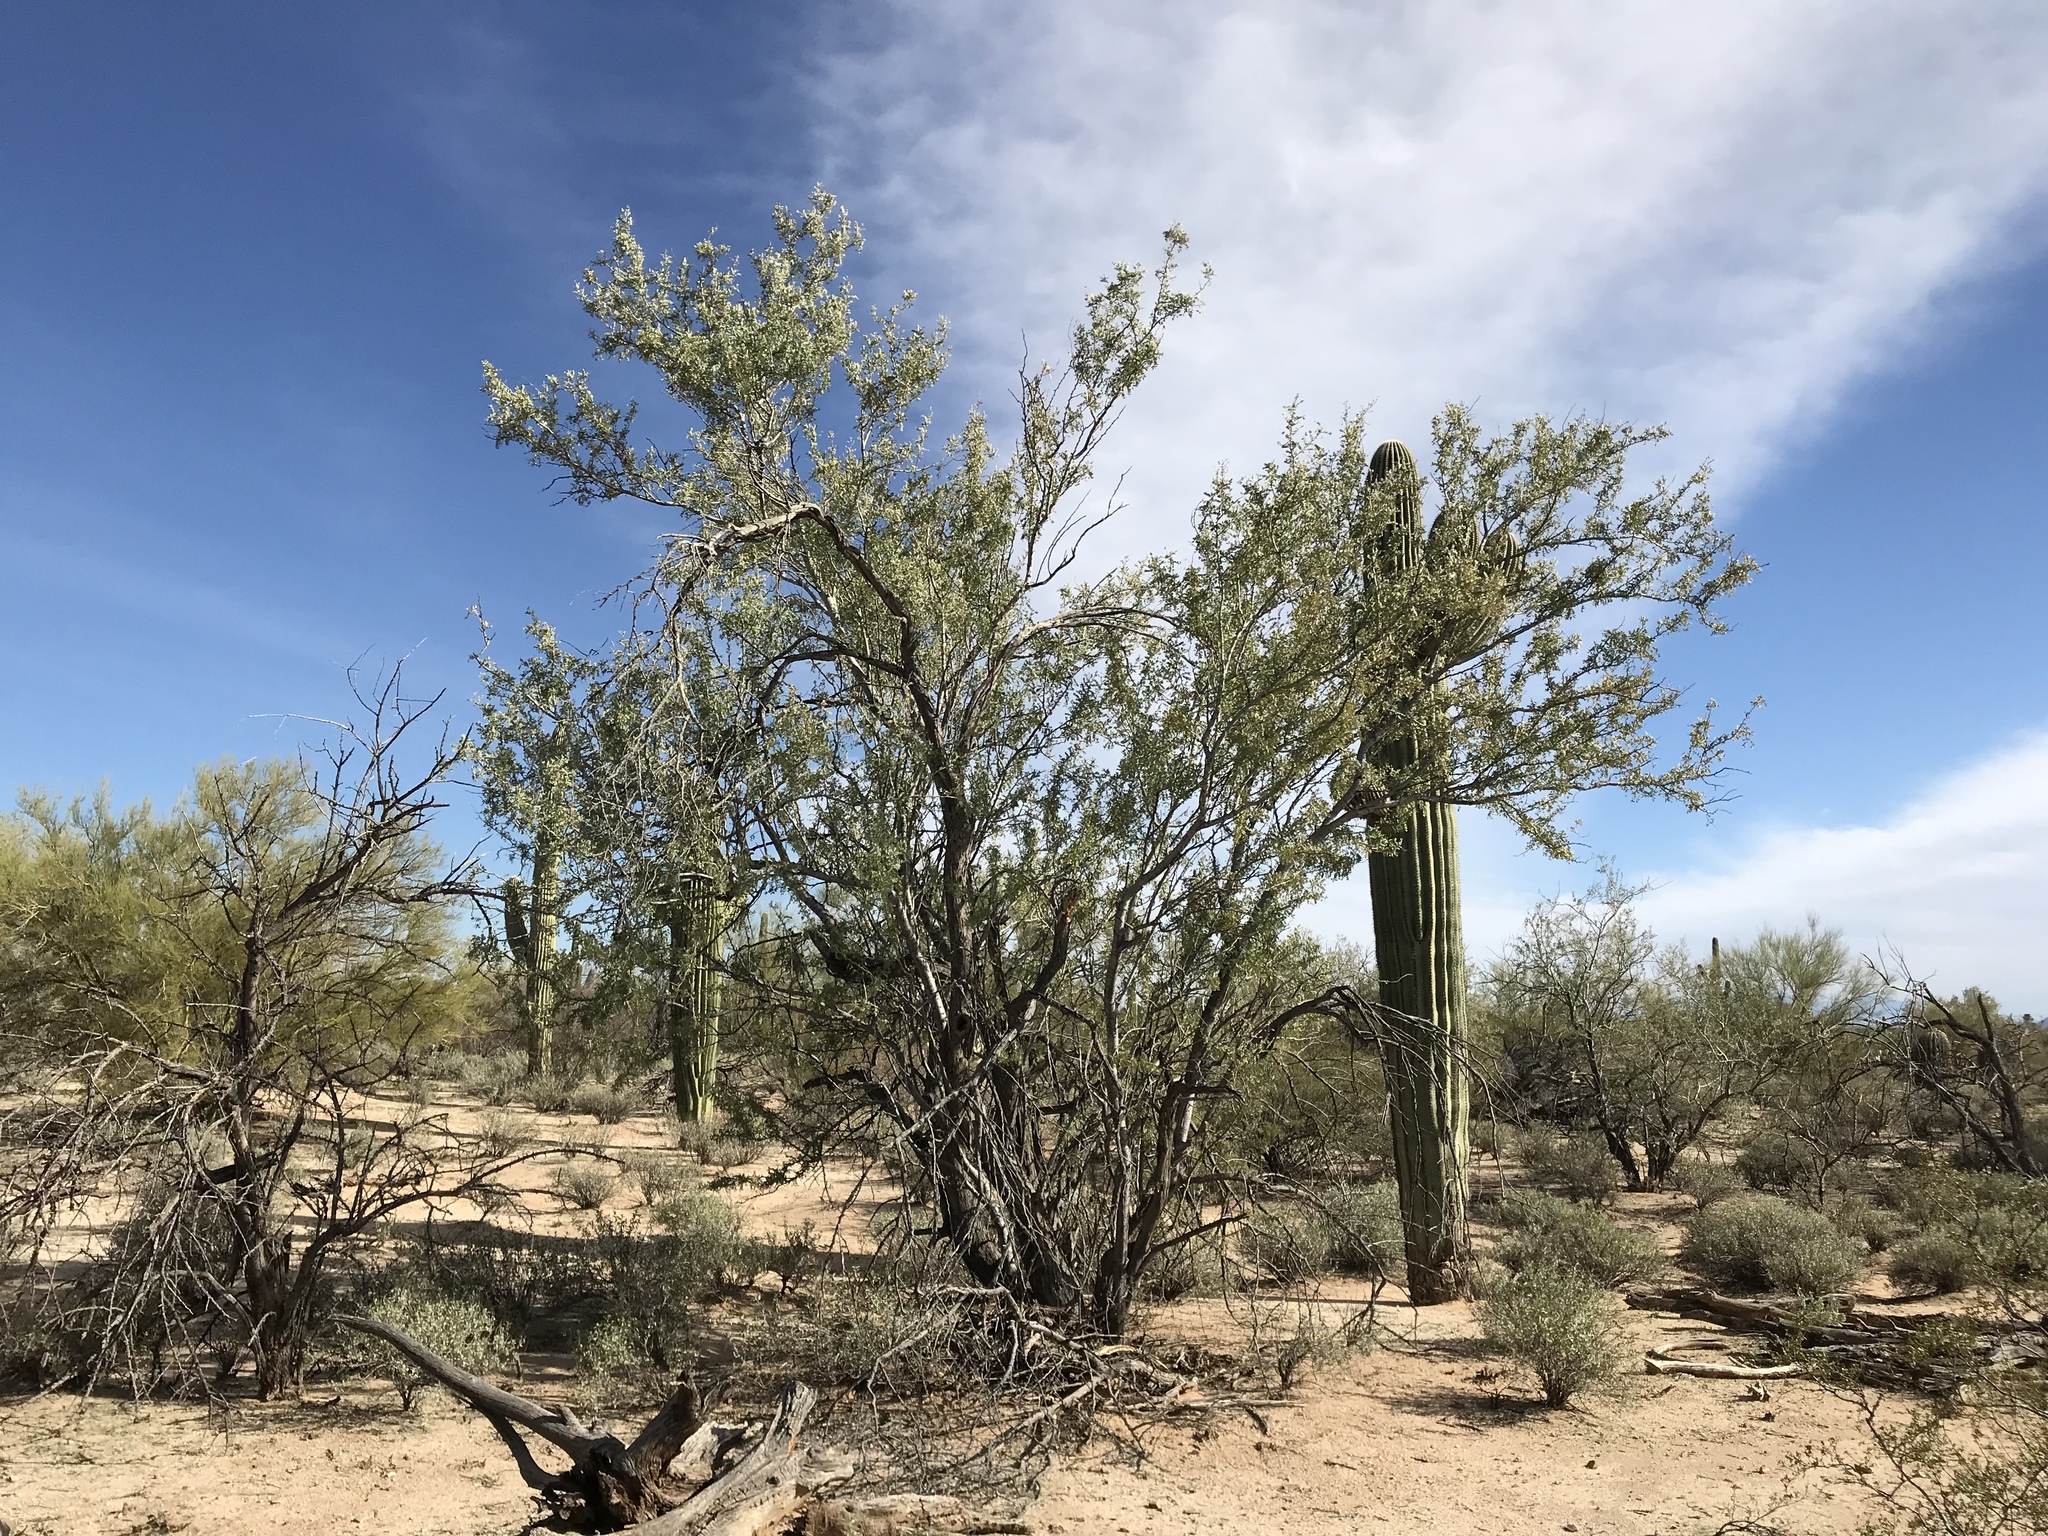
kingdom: Plantae
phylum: Tracheophyta
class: Magnoliopsida
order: Fabales
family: Fabaceae
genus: Olneya
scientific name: Olneya tesota
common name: Desert ironwood
